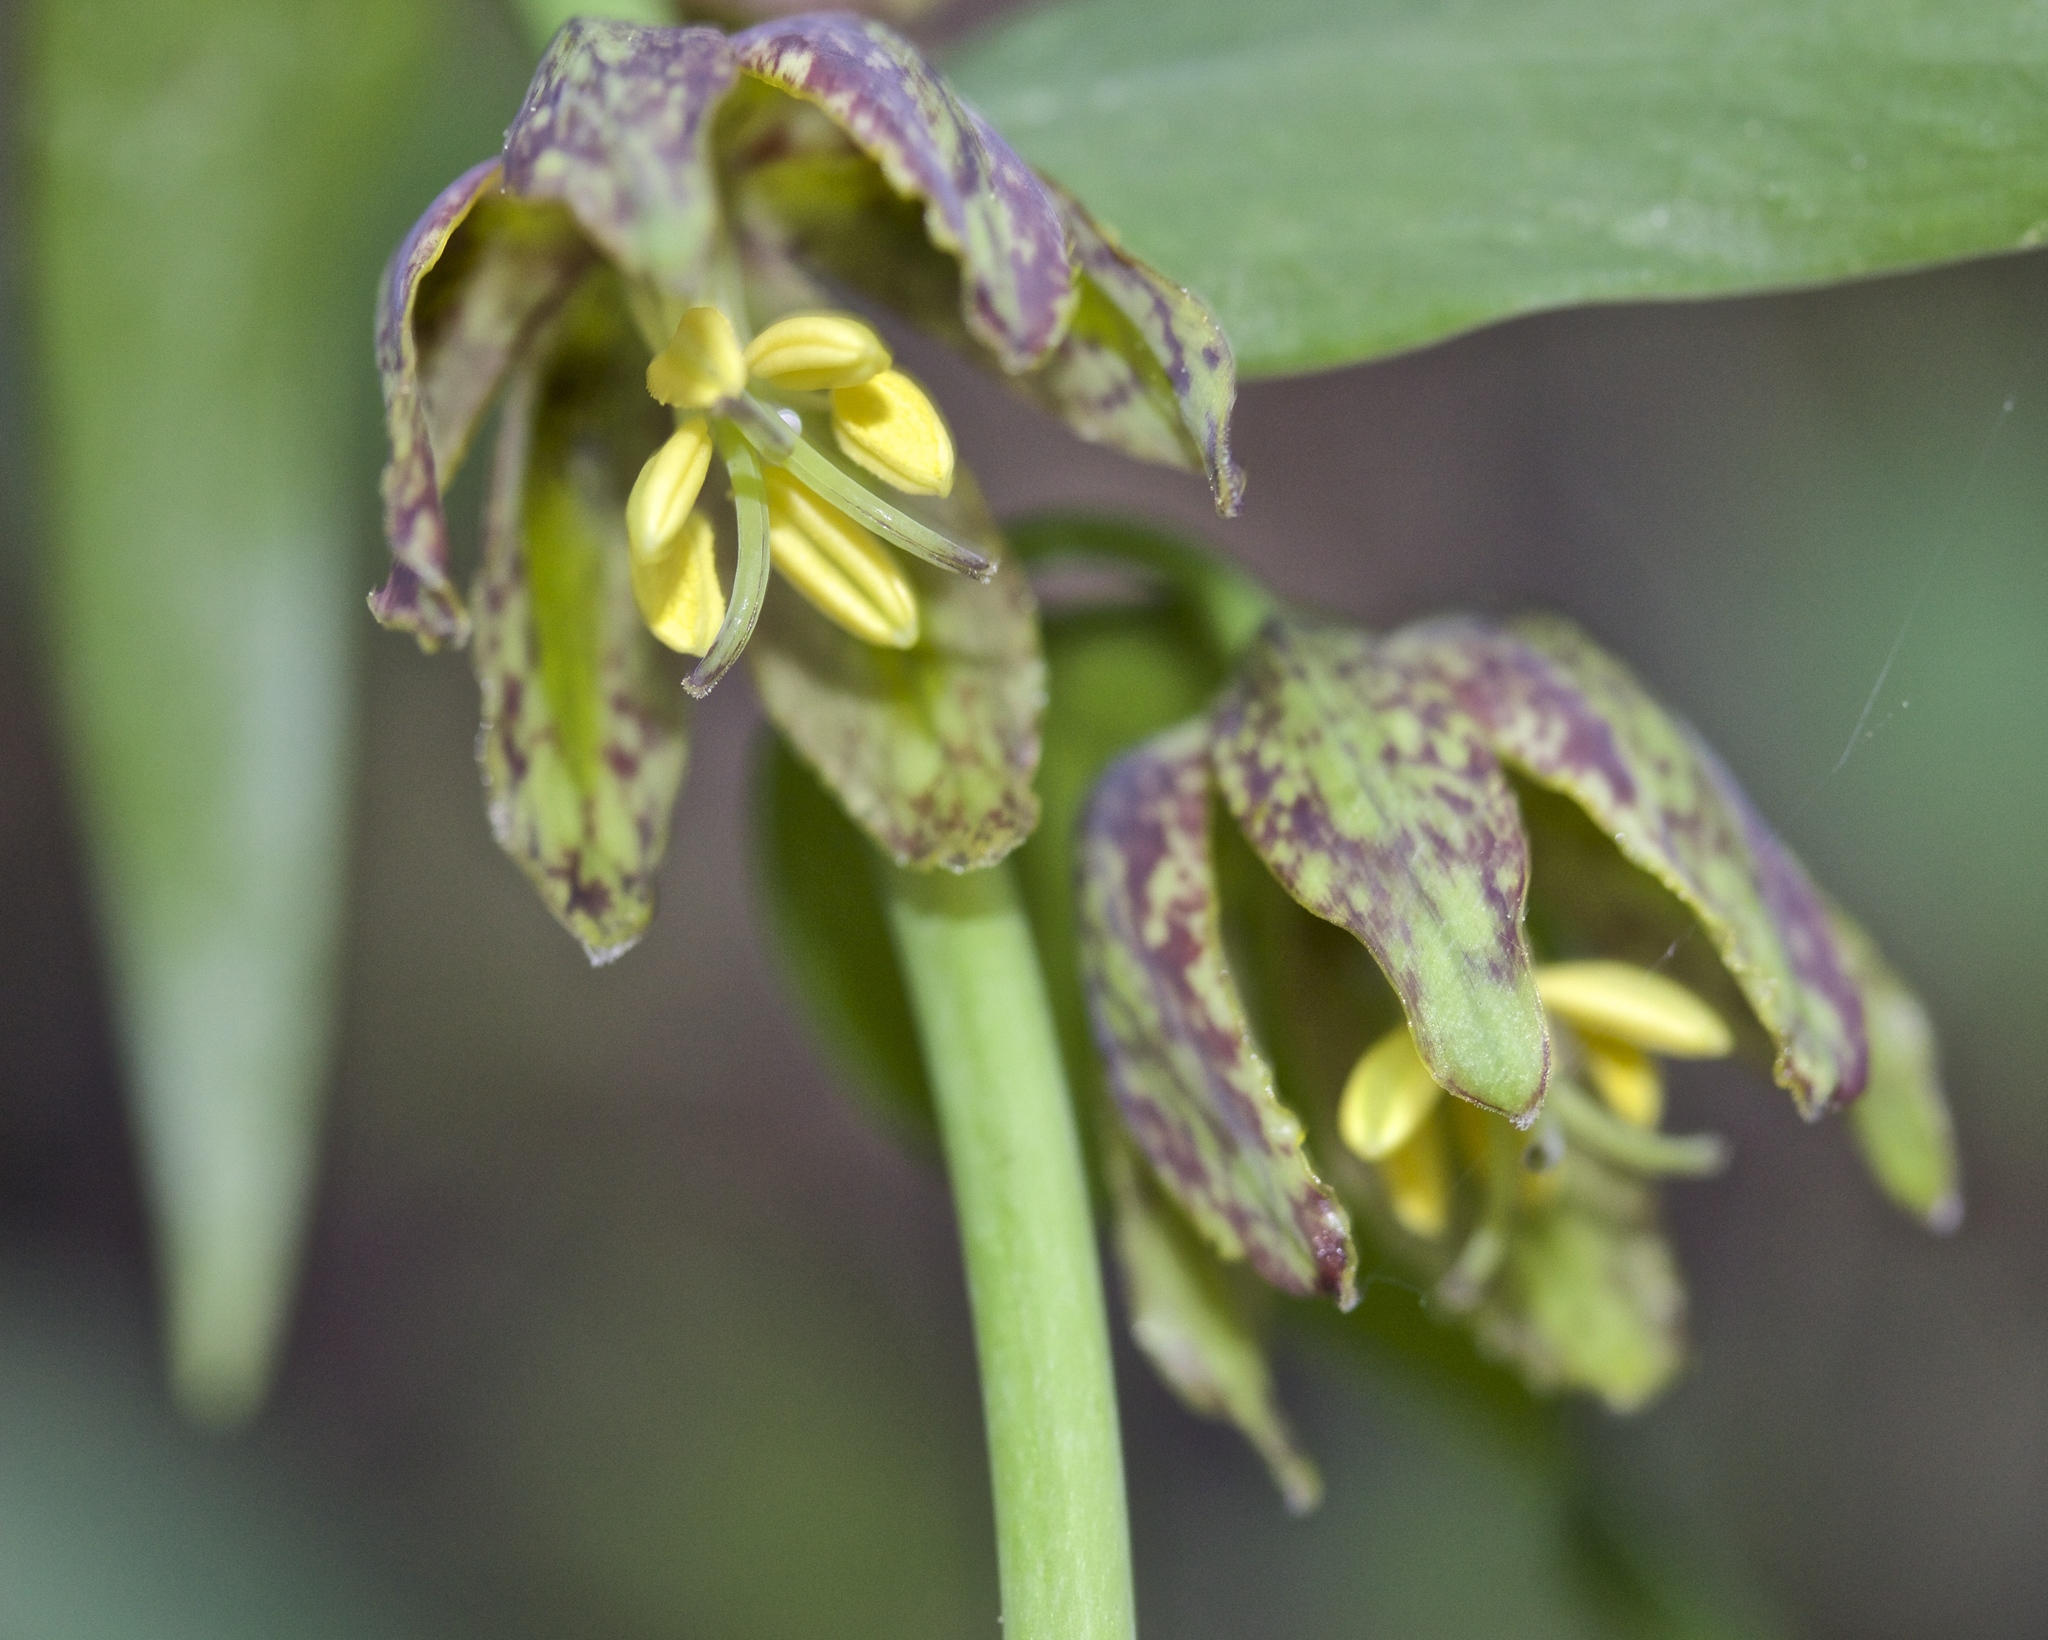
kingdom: Plantae
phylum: Tracheophyta
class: Liliopsida
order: Liliales
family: Liliaceae
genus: Fritillaria
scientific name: Fritillaria affinis
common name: Ojai fritillary
